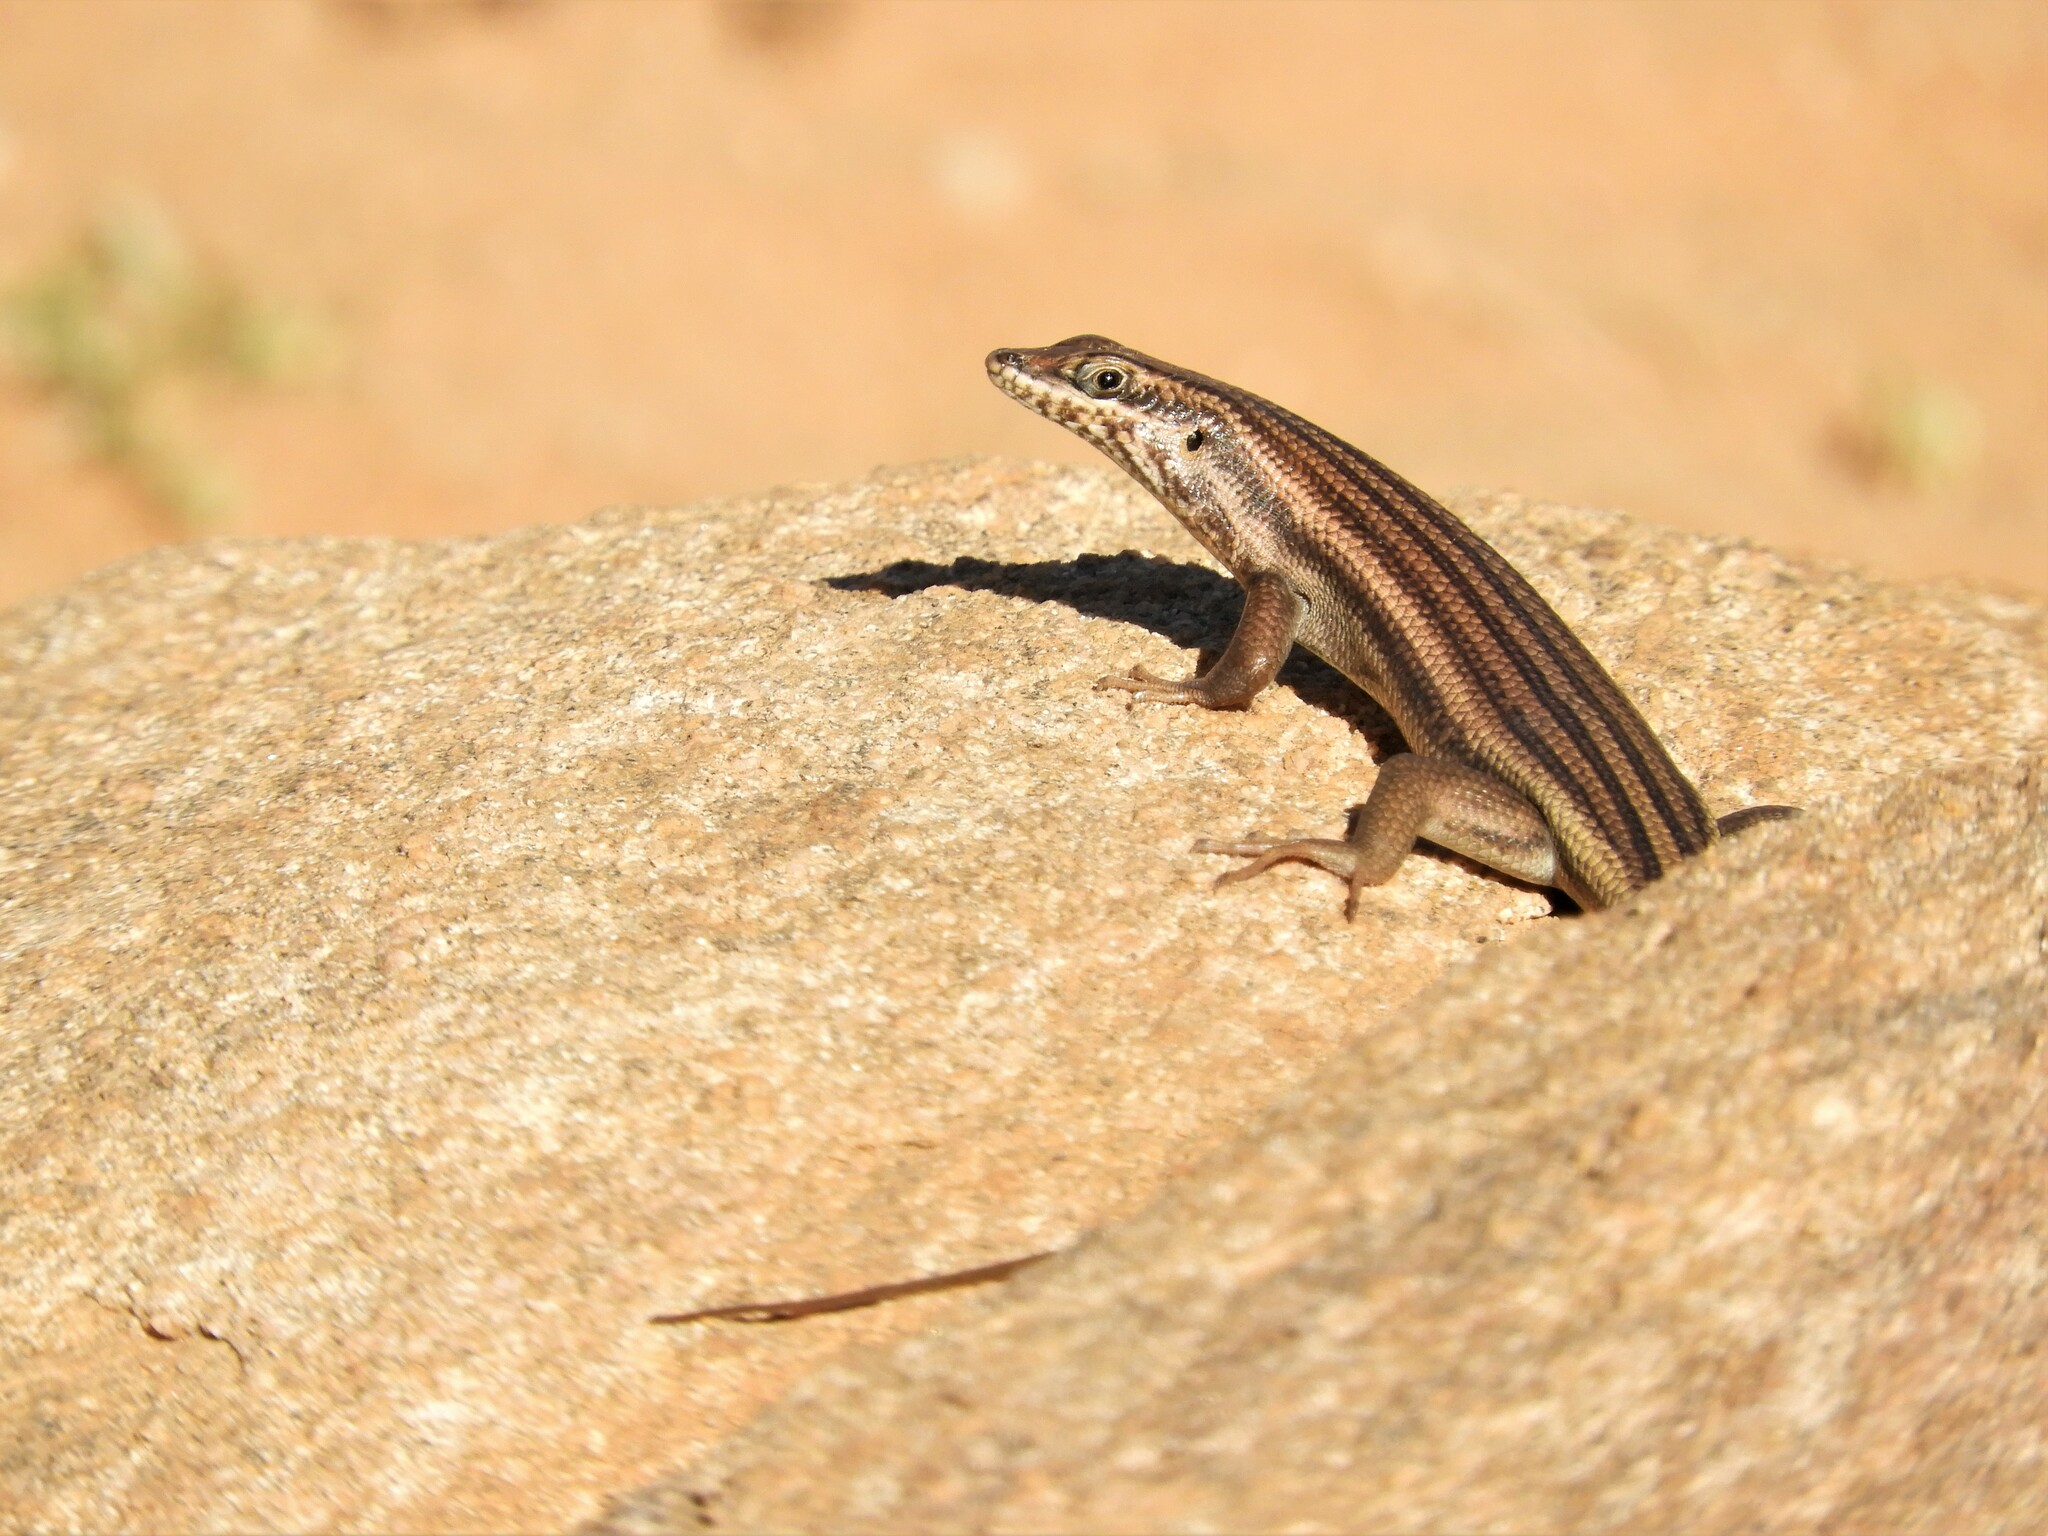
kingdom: Animalia
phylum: Chordata
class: Squamata
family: Scincidae
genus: Trachylepis
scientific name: Trachylepis sulcata
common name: Western rock skink
